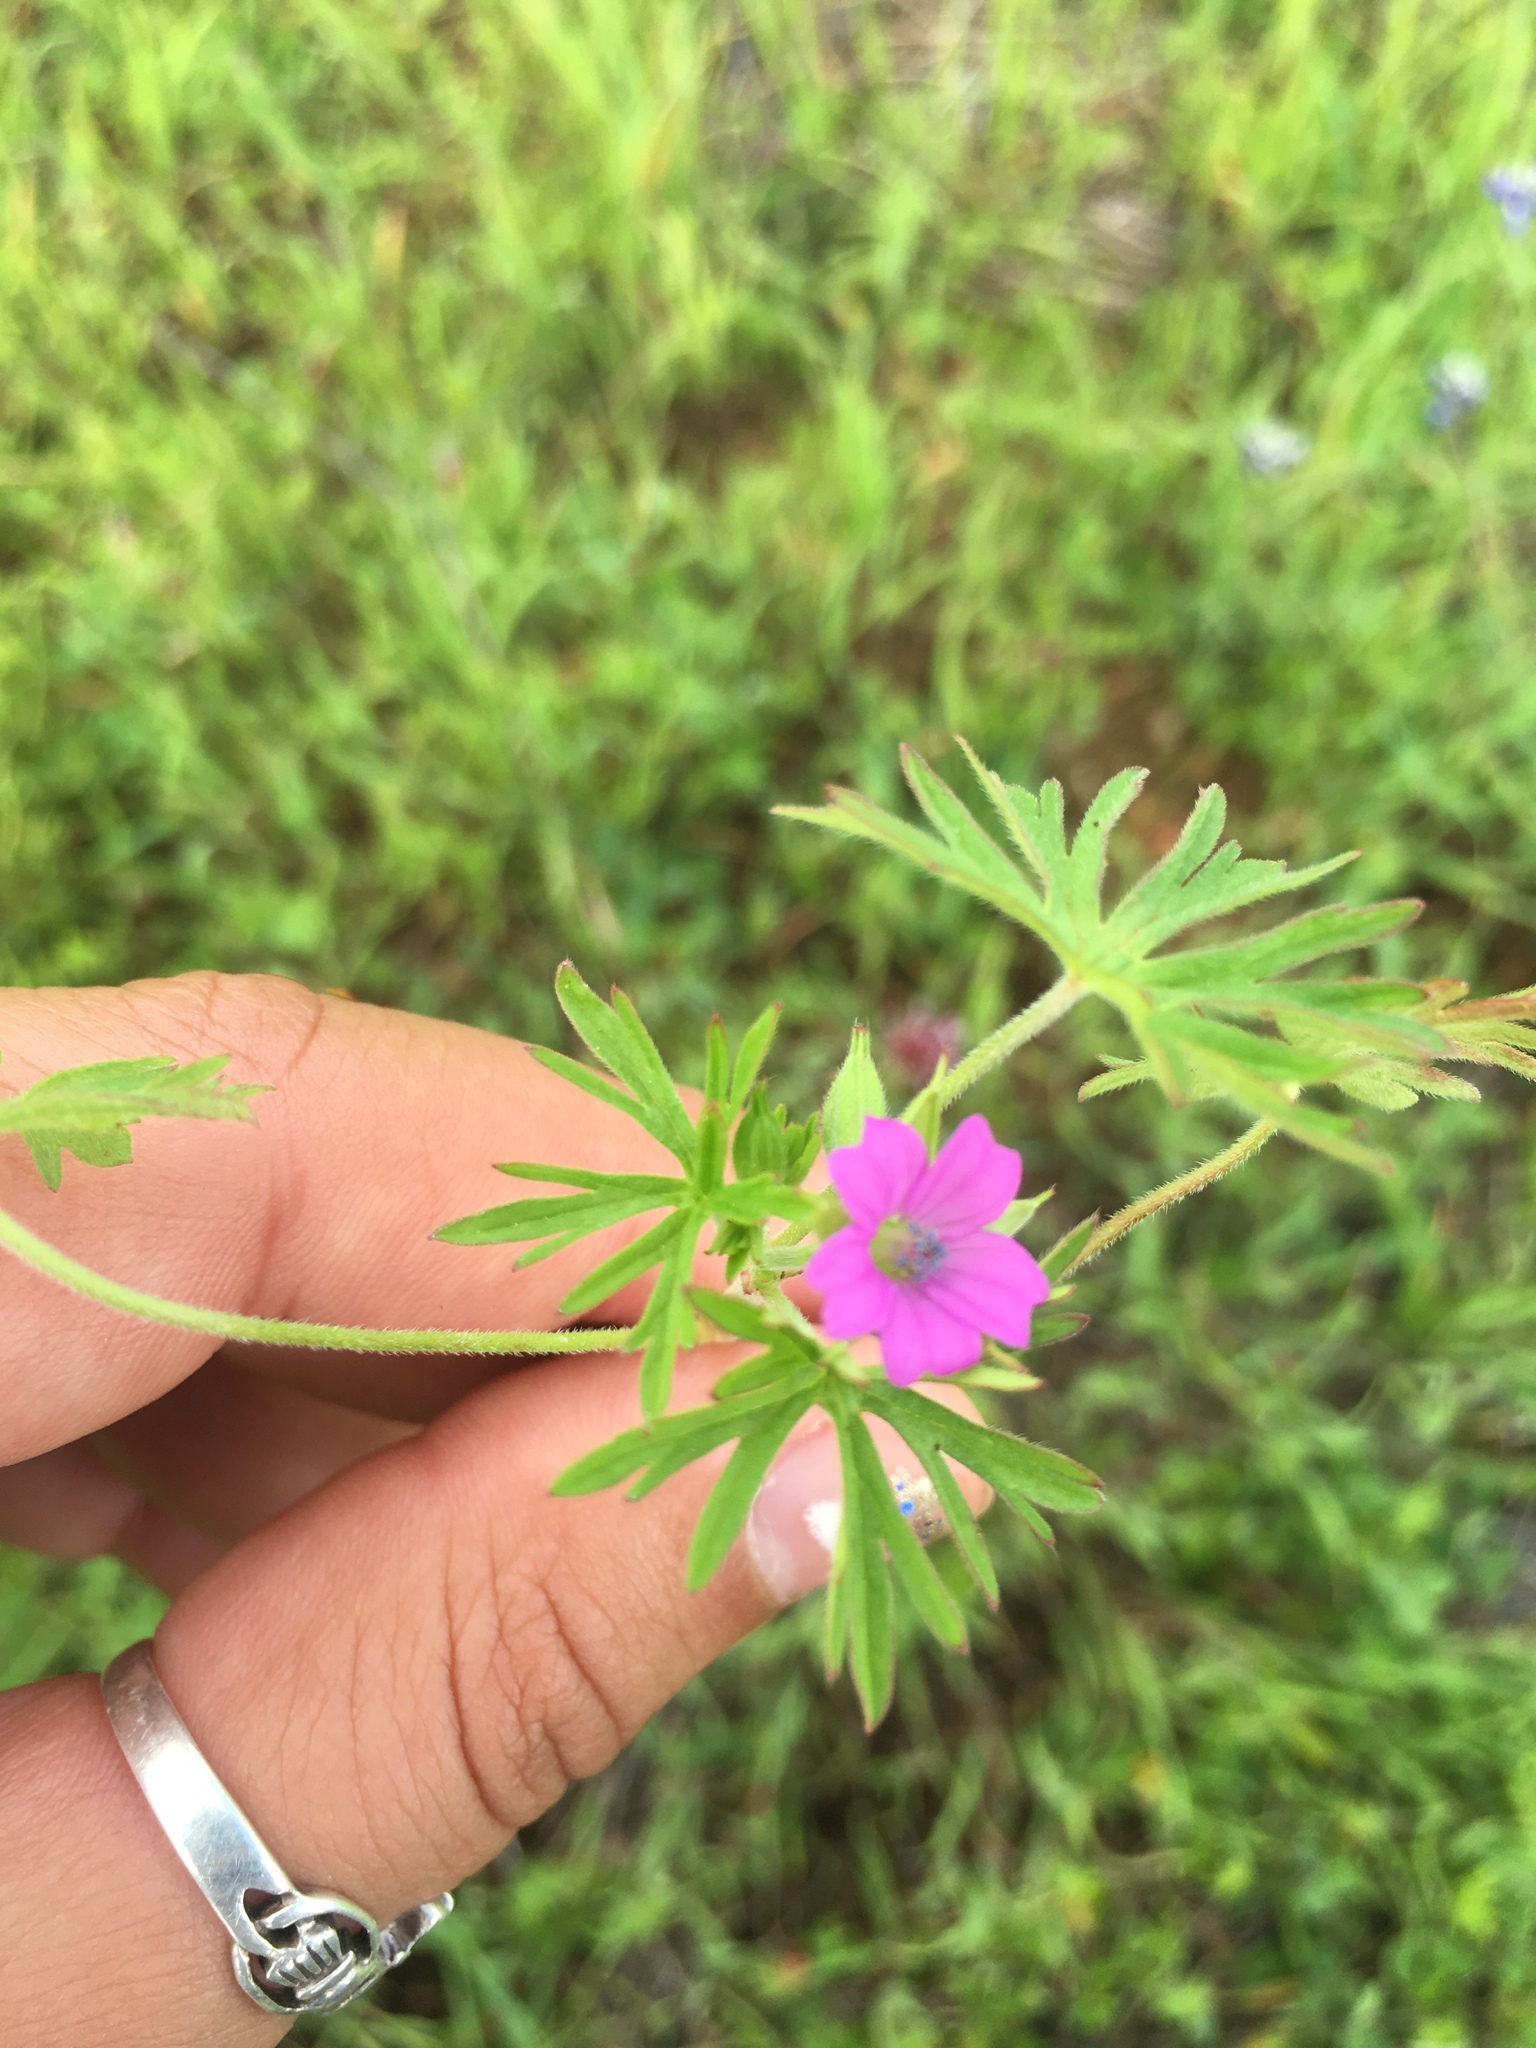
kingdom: Plantae
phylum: Tracheophyta
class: Magnoliopsida
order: Geraniales
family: Geraniaceae
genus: Geranium
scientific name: Geranium dissectum
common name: Cut-leaved crane's-bill
